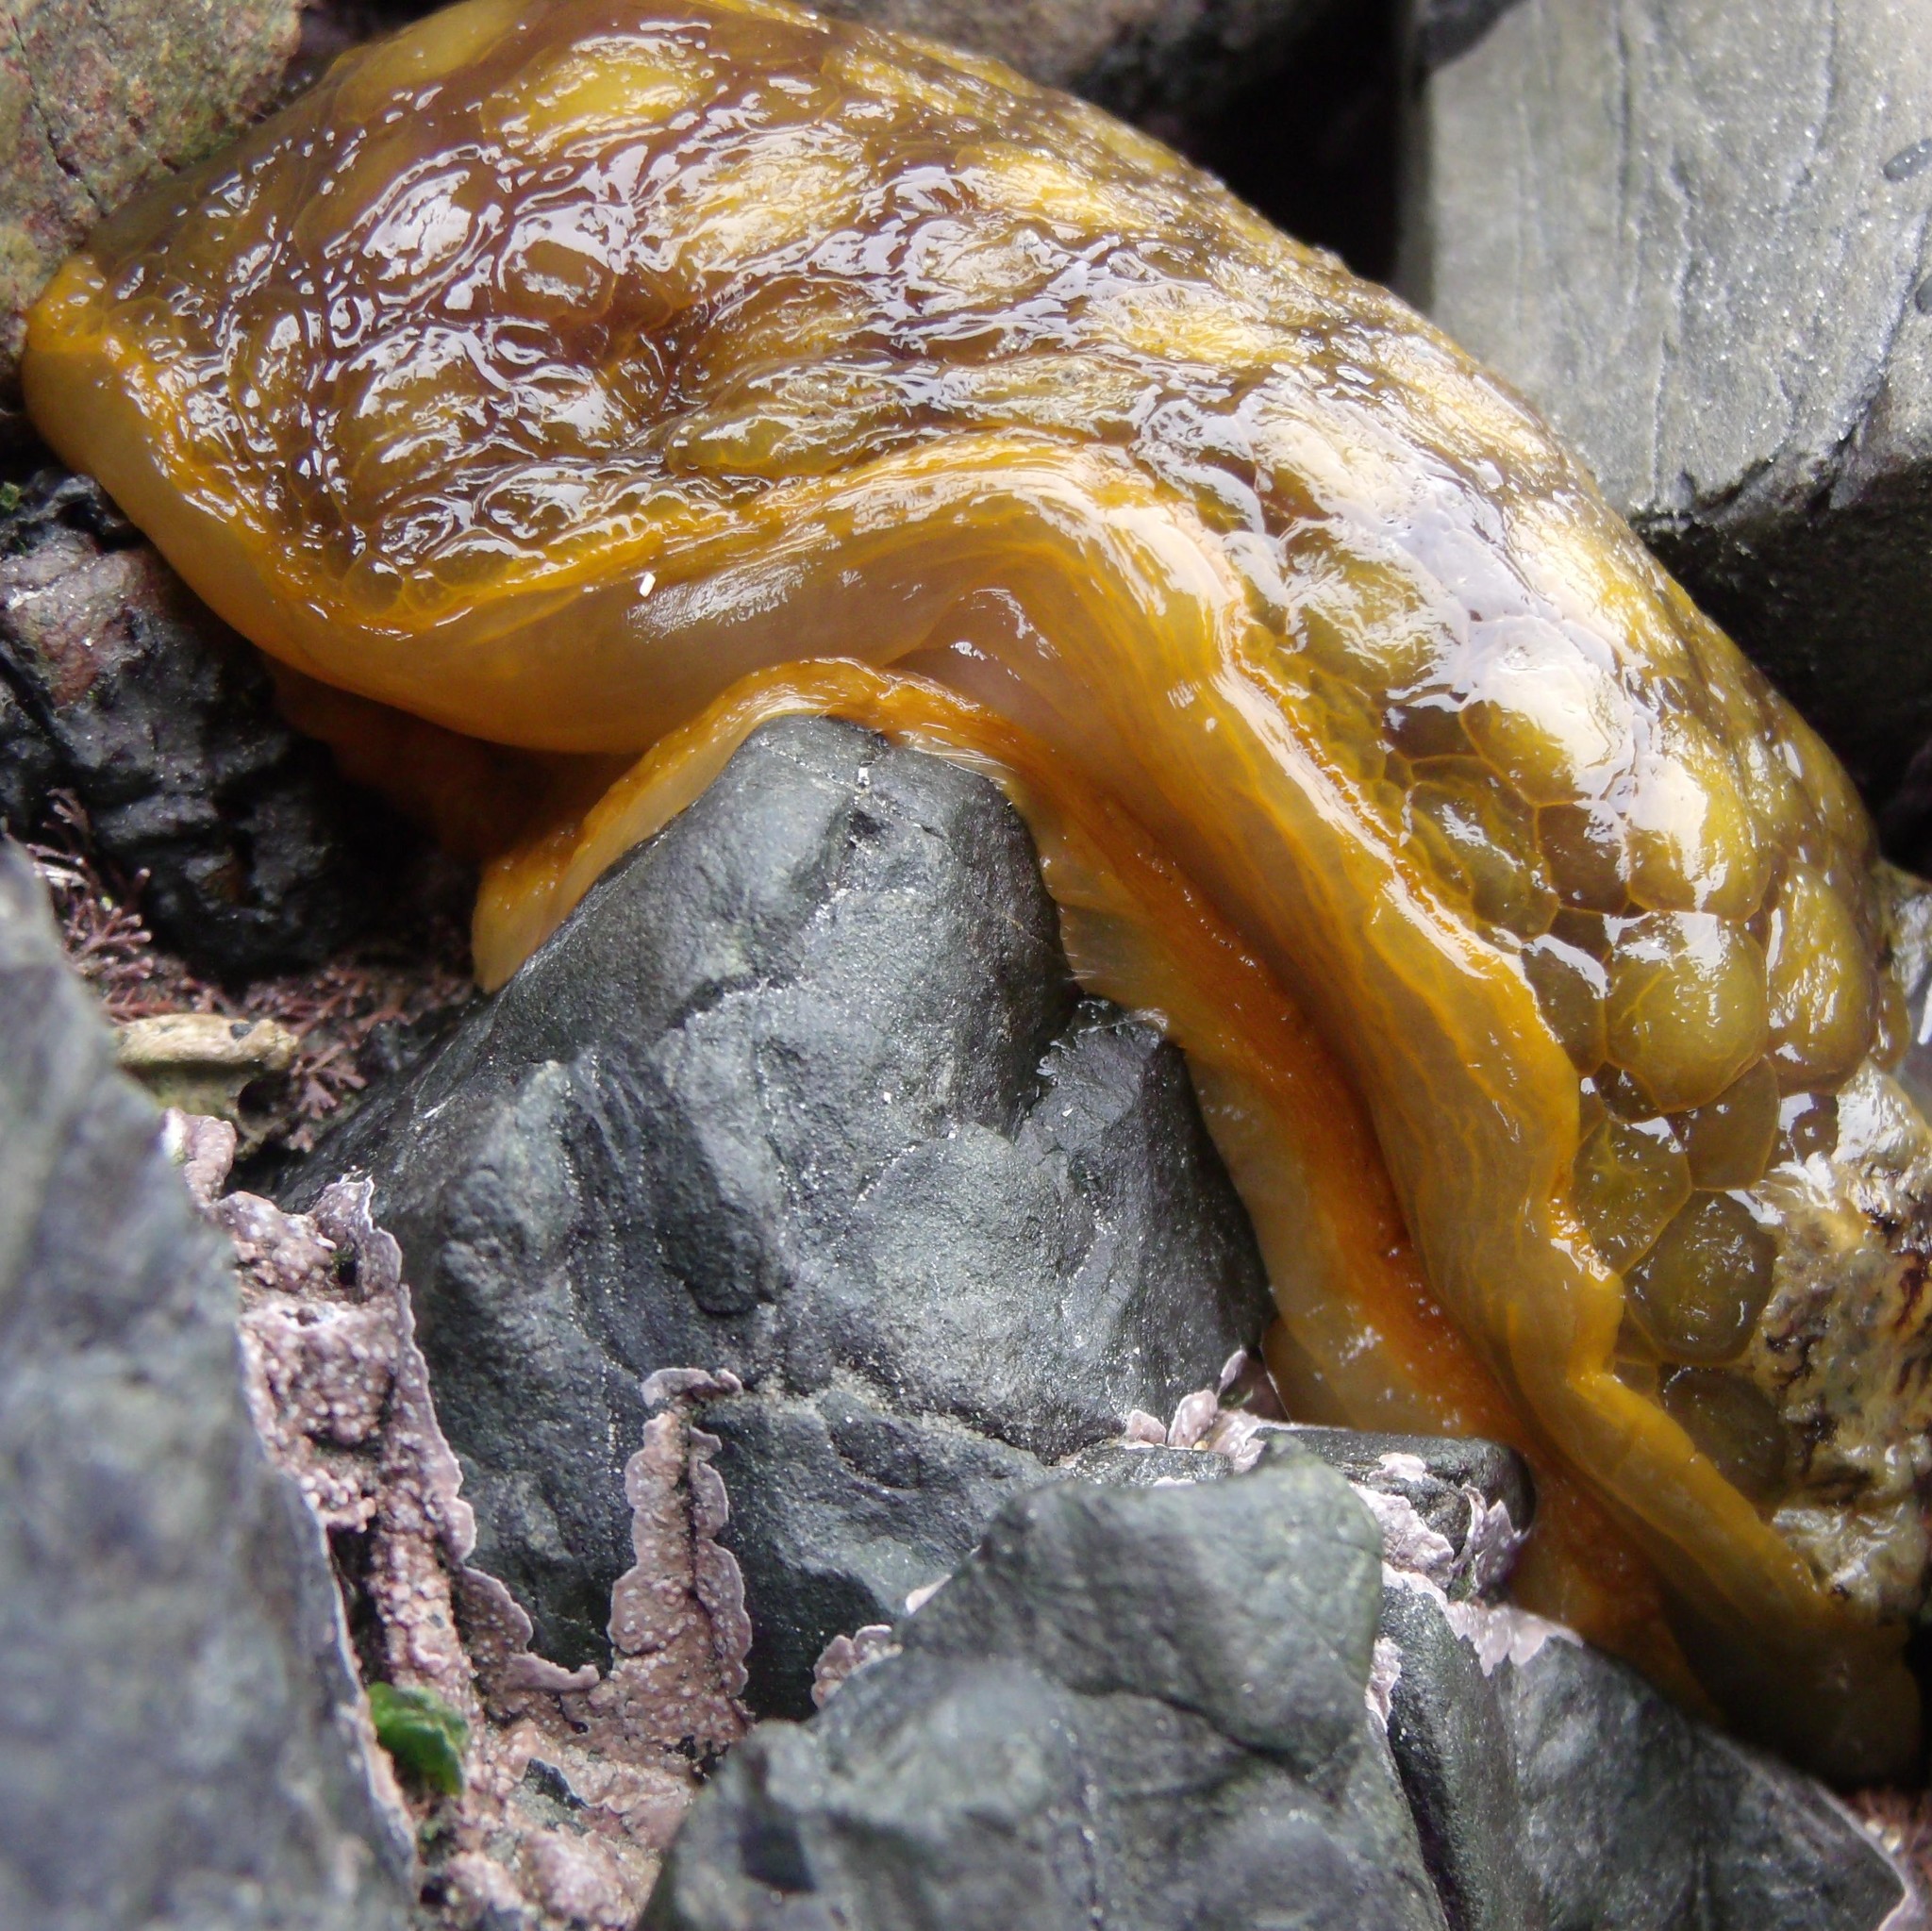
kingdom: Animalia
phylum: Mollusca
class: Gastropoda
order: Nudibranchia
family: Dorididae
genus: Doris
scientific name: Doris wellingtonensis
